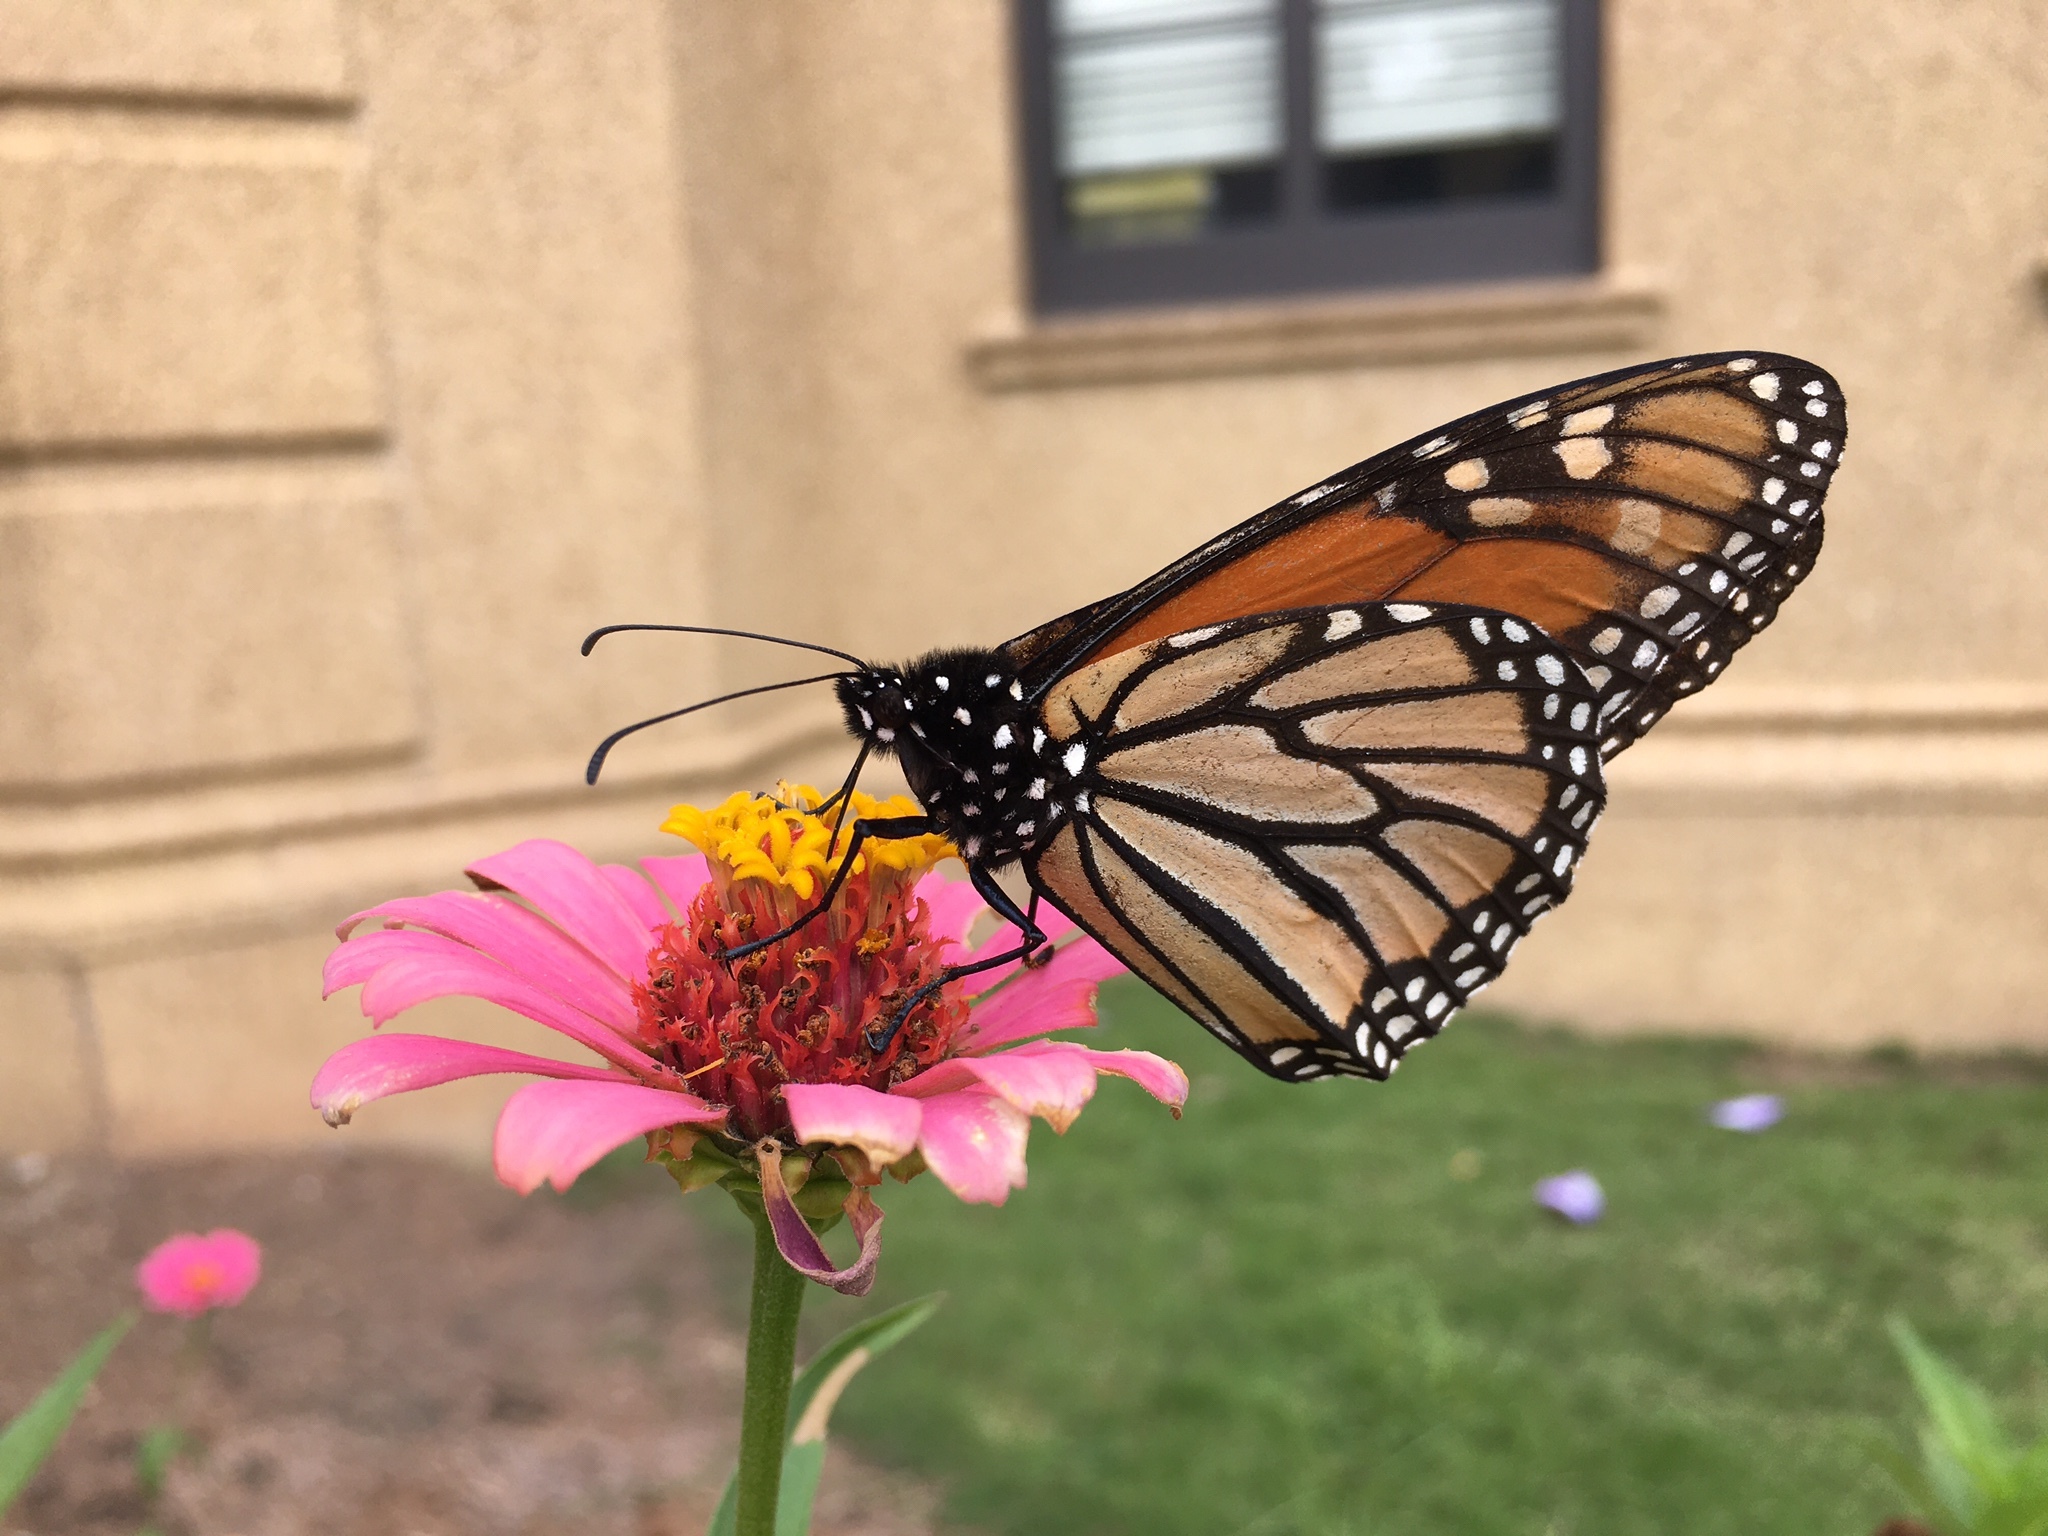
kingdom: Animalia
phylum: Arthropoda
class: Insecta
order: Lepidoptera
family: Nymphalidae
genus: Danaus
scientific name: Danaus plexippus
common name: Monarch
